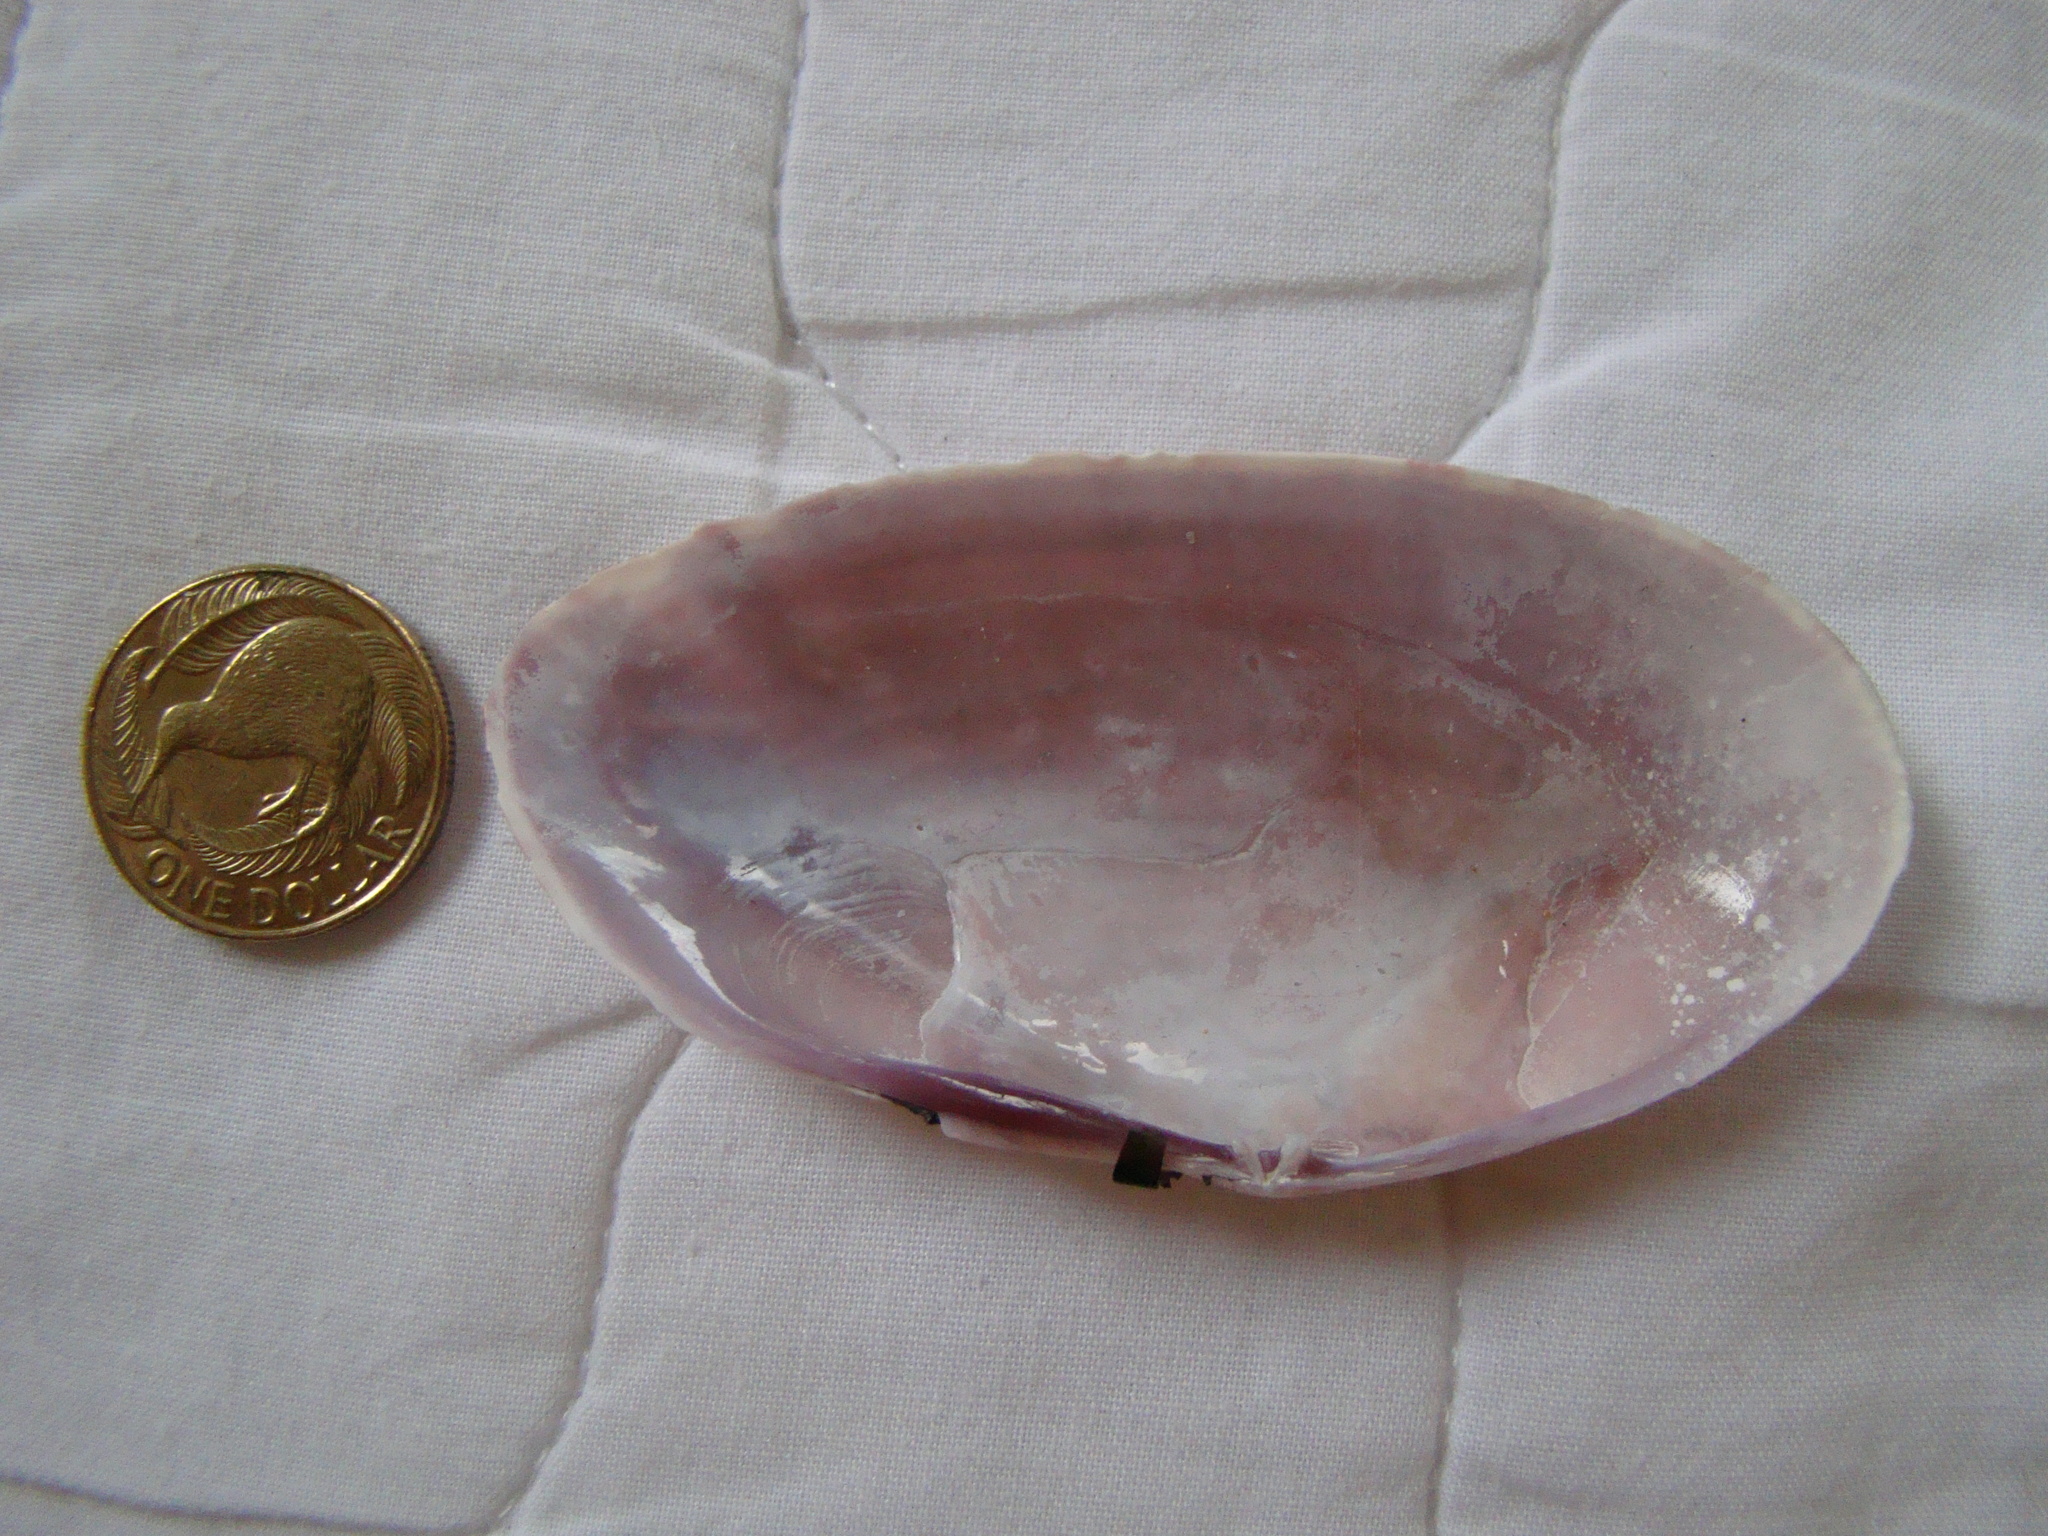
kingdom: Animalia
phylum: Mollusca
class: Bivalvia
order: Cardiida
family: Psammobiidae
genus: Gari
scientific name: Gari convexa
